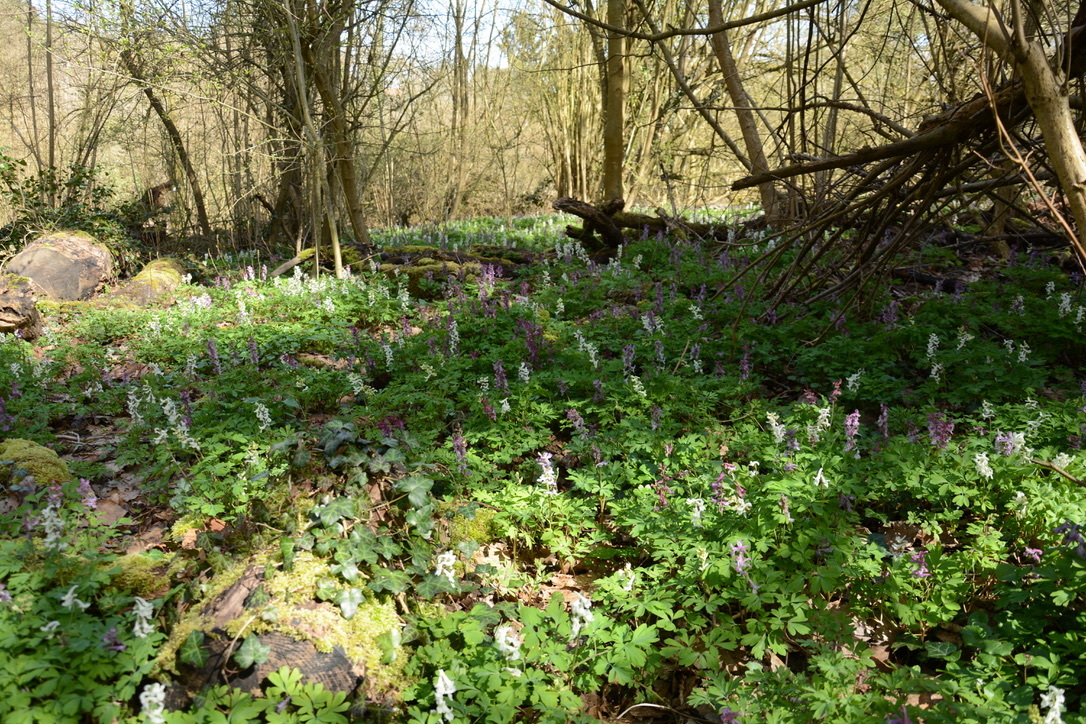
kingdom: Plantae
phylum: Tracheophyta
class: Magnoliopsida
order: Ranunculales
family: Papaveraceae
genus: Corydalis
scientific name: Corydalis cava
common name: Hollowroot
